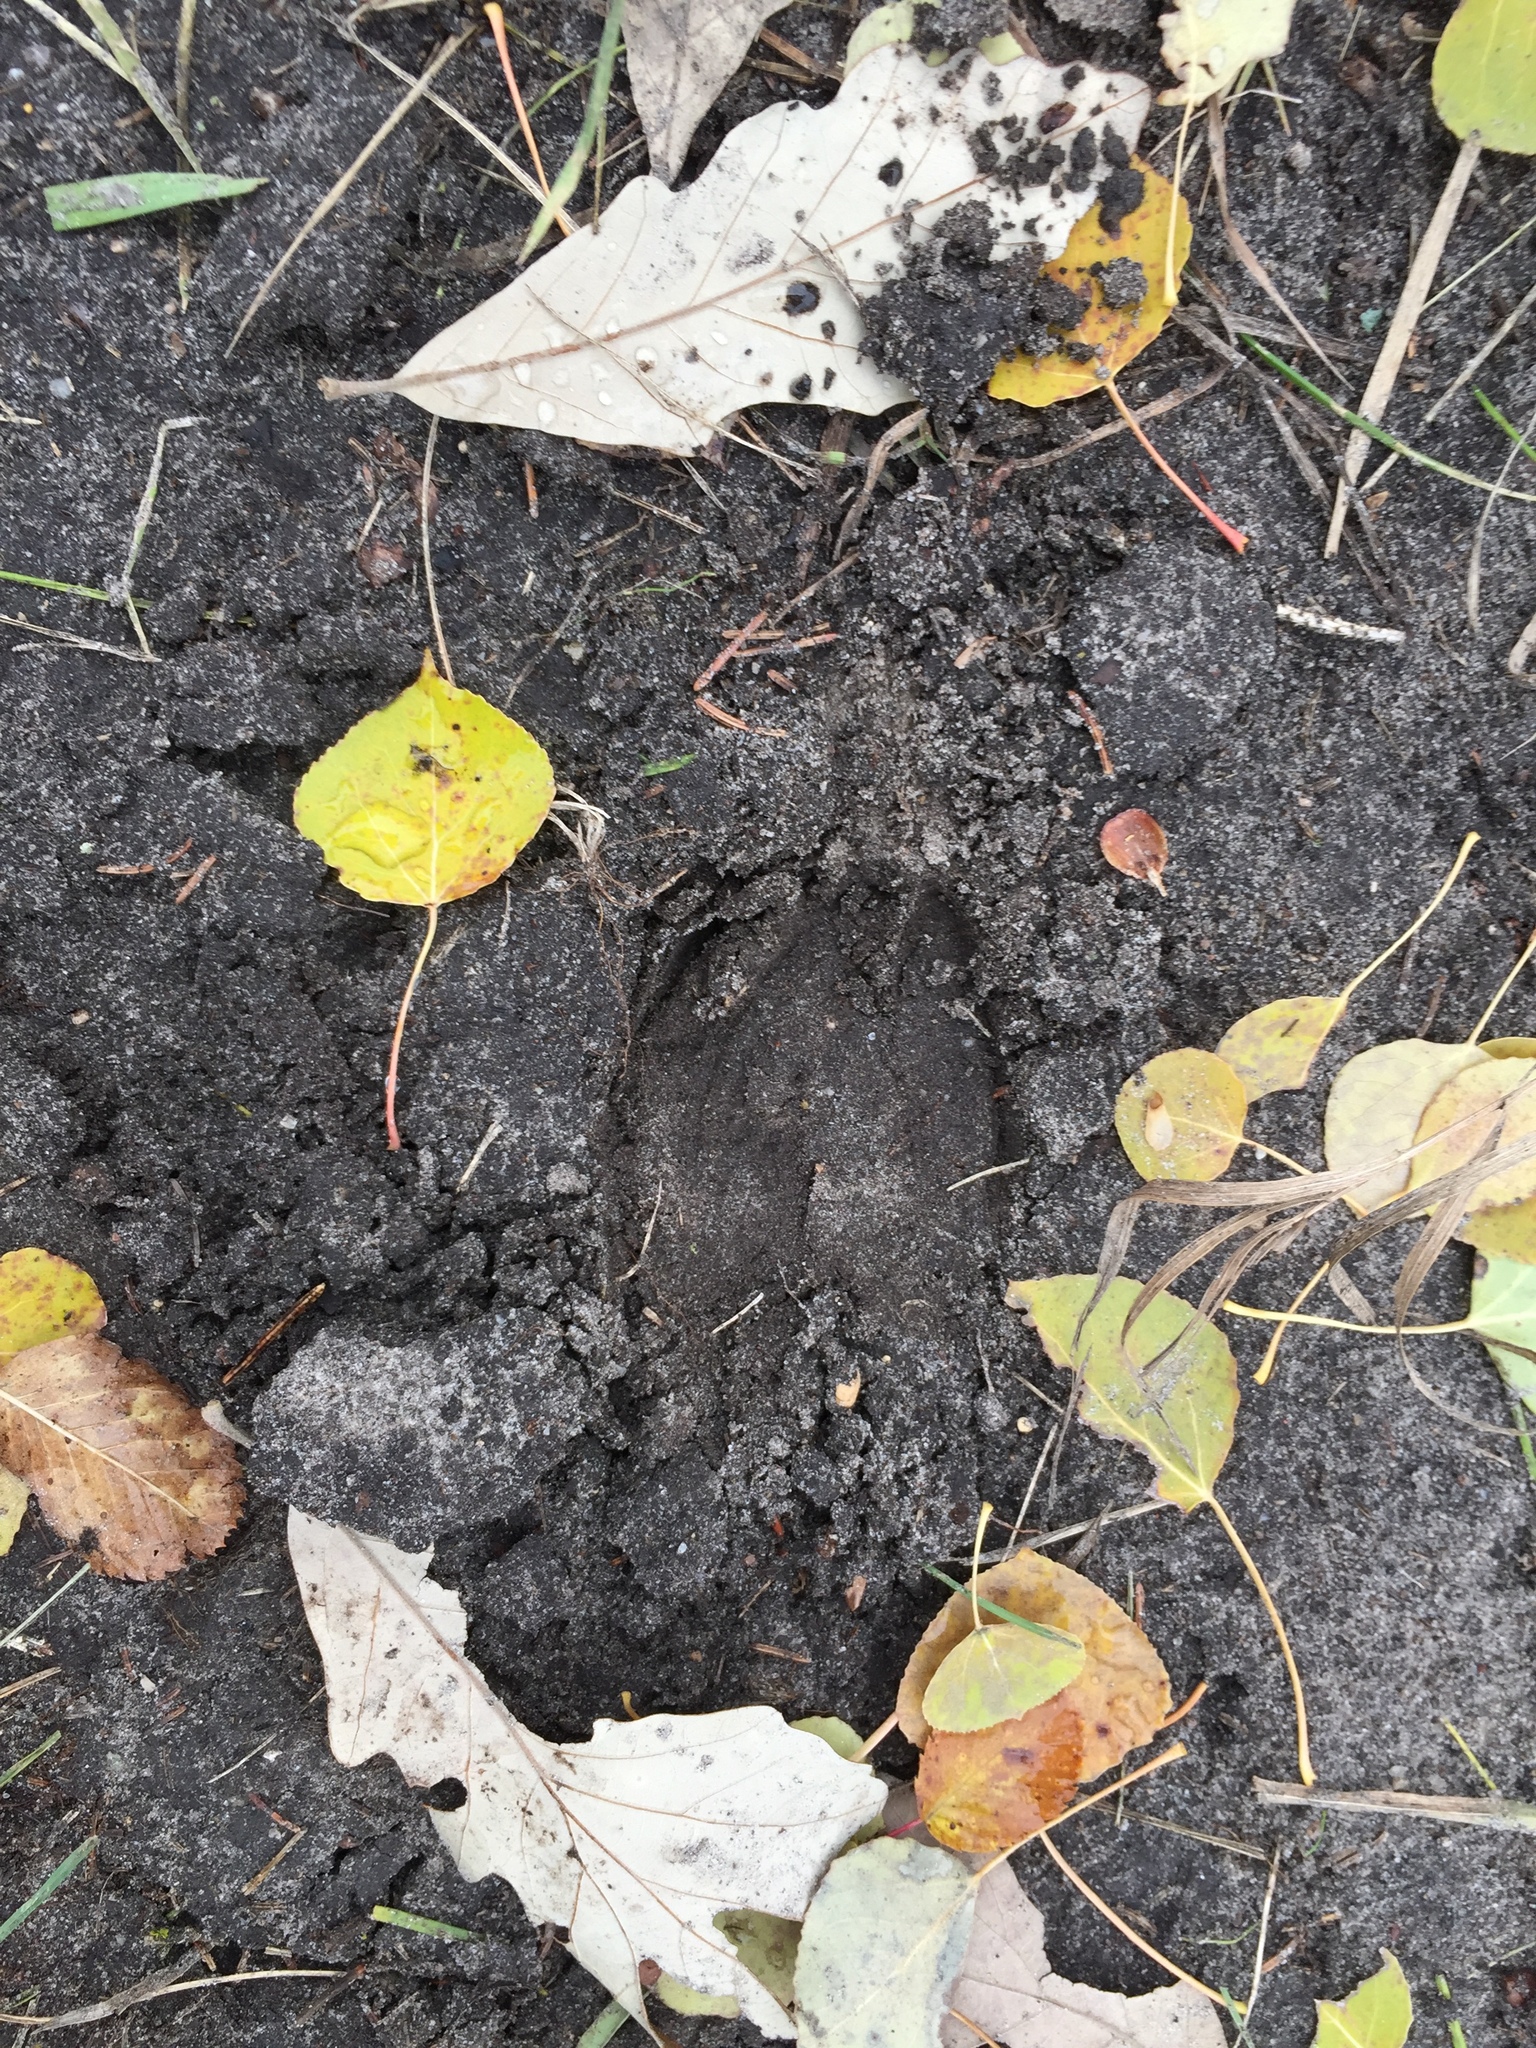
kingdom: Animalia
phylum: Chordata
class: Mammalia
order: Artiodactyla
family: Cervidae
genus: Odocoileus
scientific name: Odocoileus virginianus
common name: White-tailed deer
